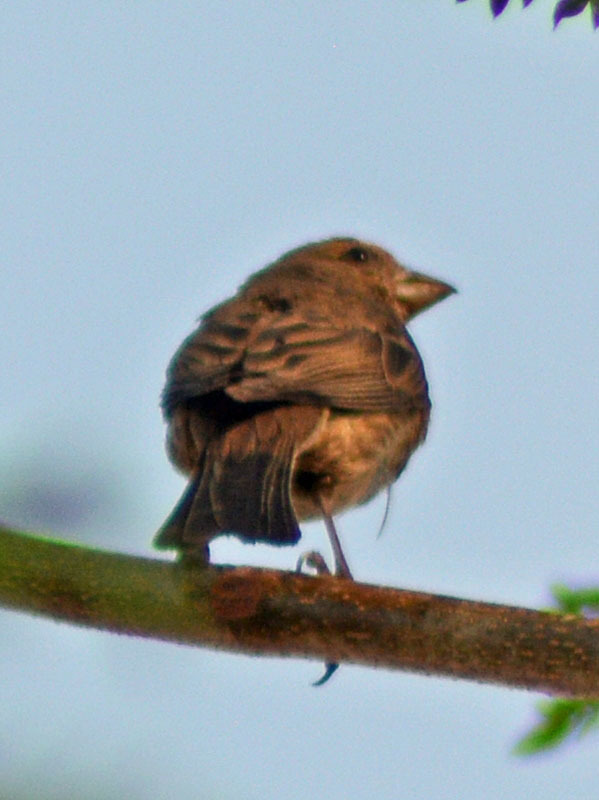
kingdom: Animalia
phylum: Chordata
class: Aves
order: Passeriformes
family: Fringillidae
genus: Haemorhous
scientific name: Haemorhous mexicanus
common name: House finch
